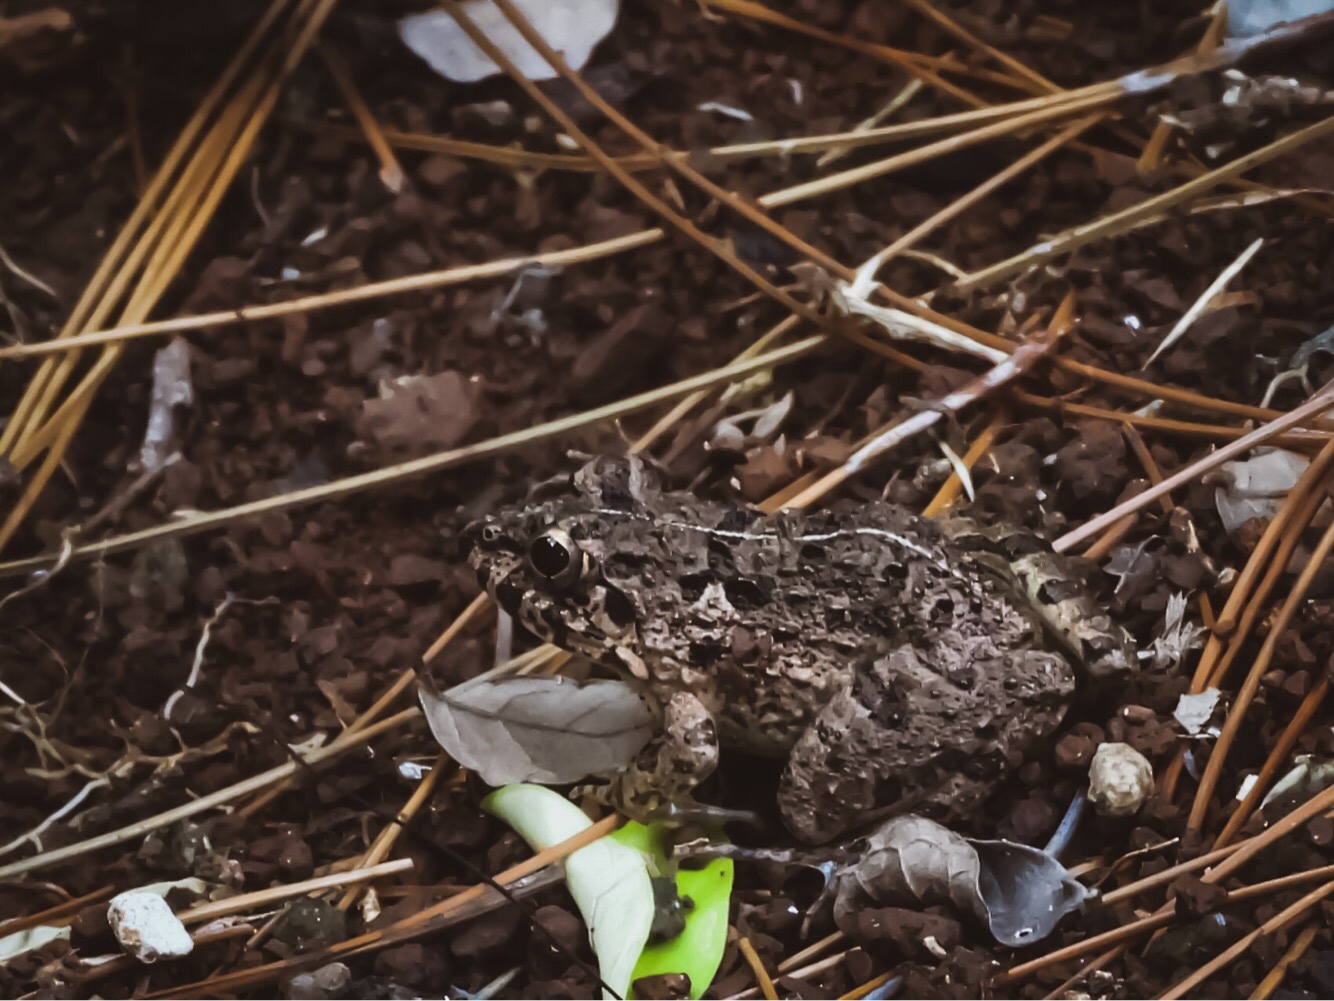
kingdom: Animalia
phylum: Chordata
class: Amphibia
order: Anura
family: Dicroglossidae
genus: Fejervarya
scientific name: Fejervarya limnocharis
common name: Asian grass frog/common pond frog/field frog/grass frog/indian rice frog
